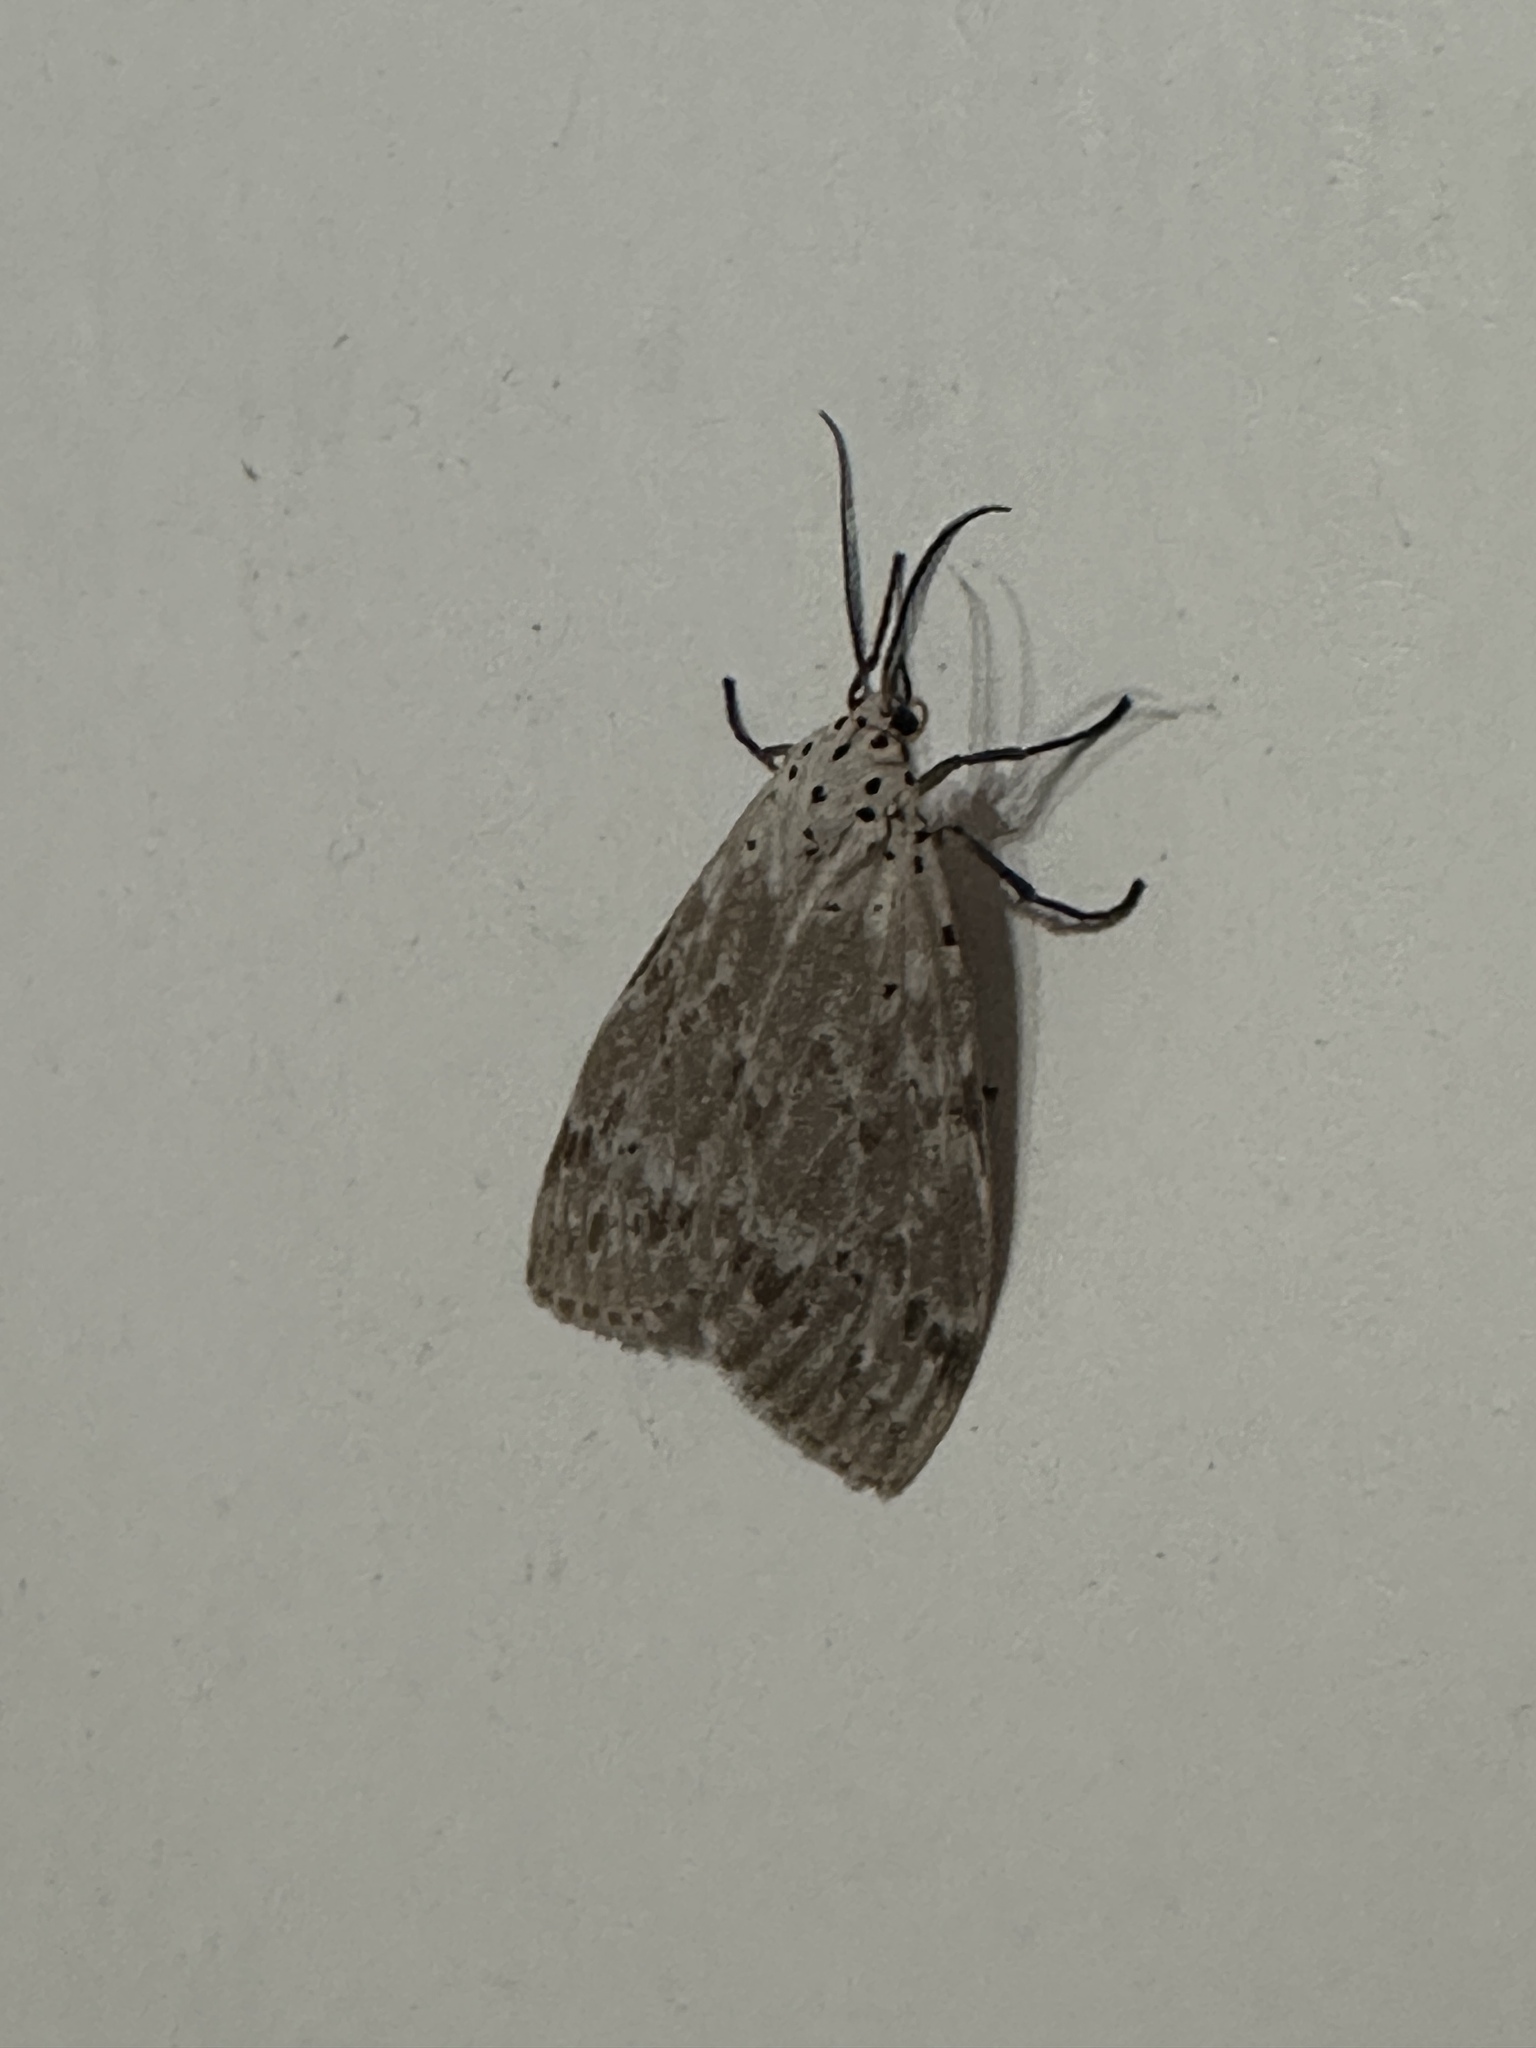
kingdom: Animalia
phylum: Arthropoda
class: Insecta
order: Lepidoptera
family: Erebidae
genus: Galtara
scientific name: Galtara extensa
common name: Madagascar moth
